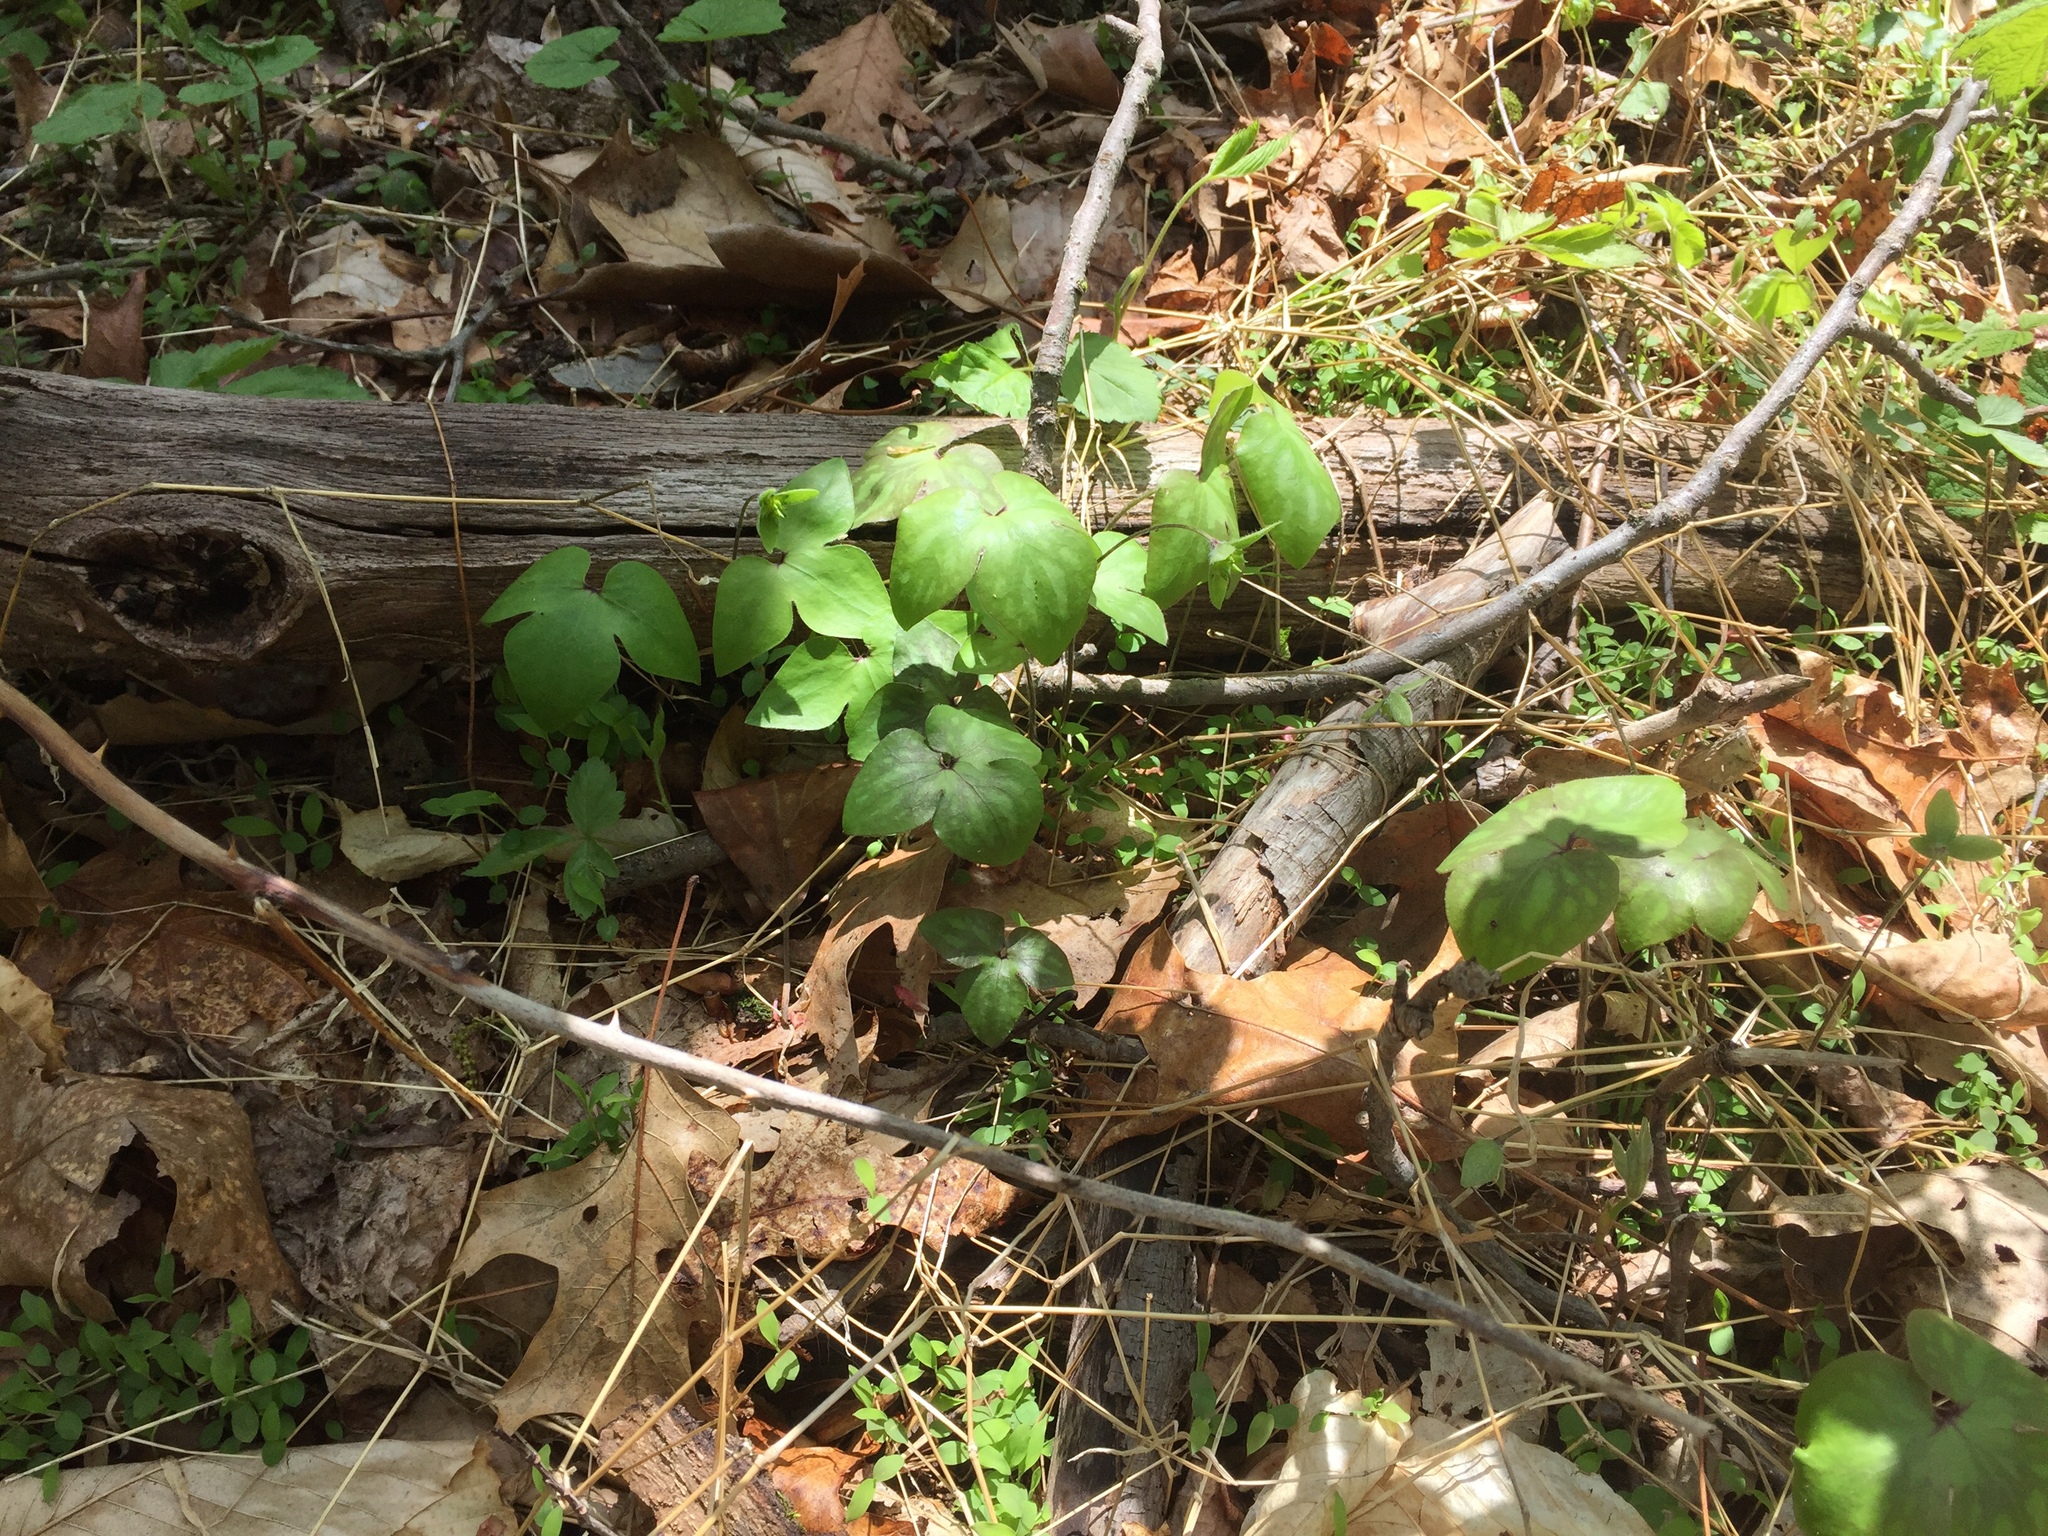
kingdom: Plantae
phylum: Tracheophyta
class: Magnoliopsida
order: Ranunculales
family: Ranunculaceae
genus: Hepatica
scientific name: Hepatica acutiloba
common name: Sharp-lobed hepatica
